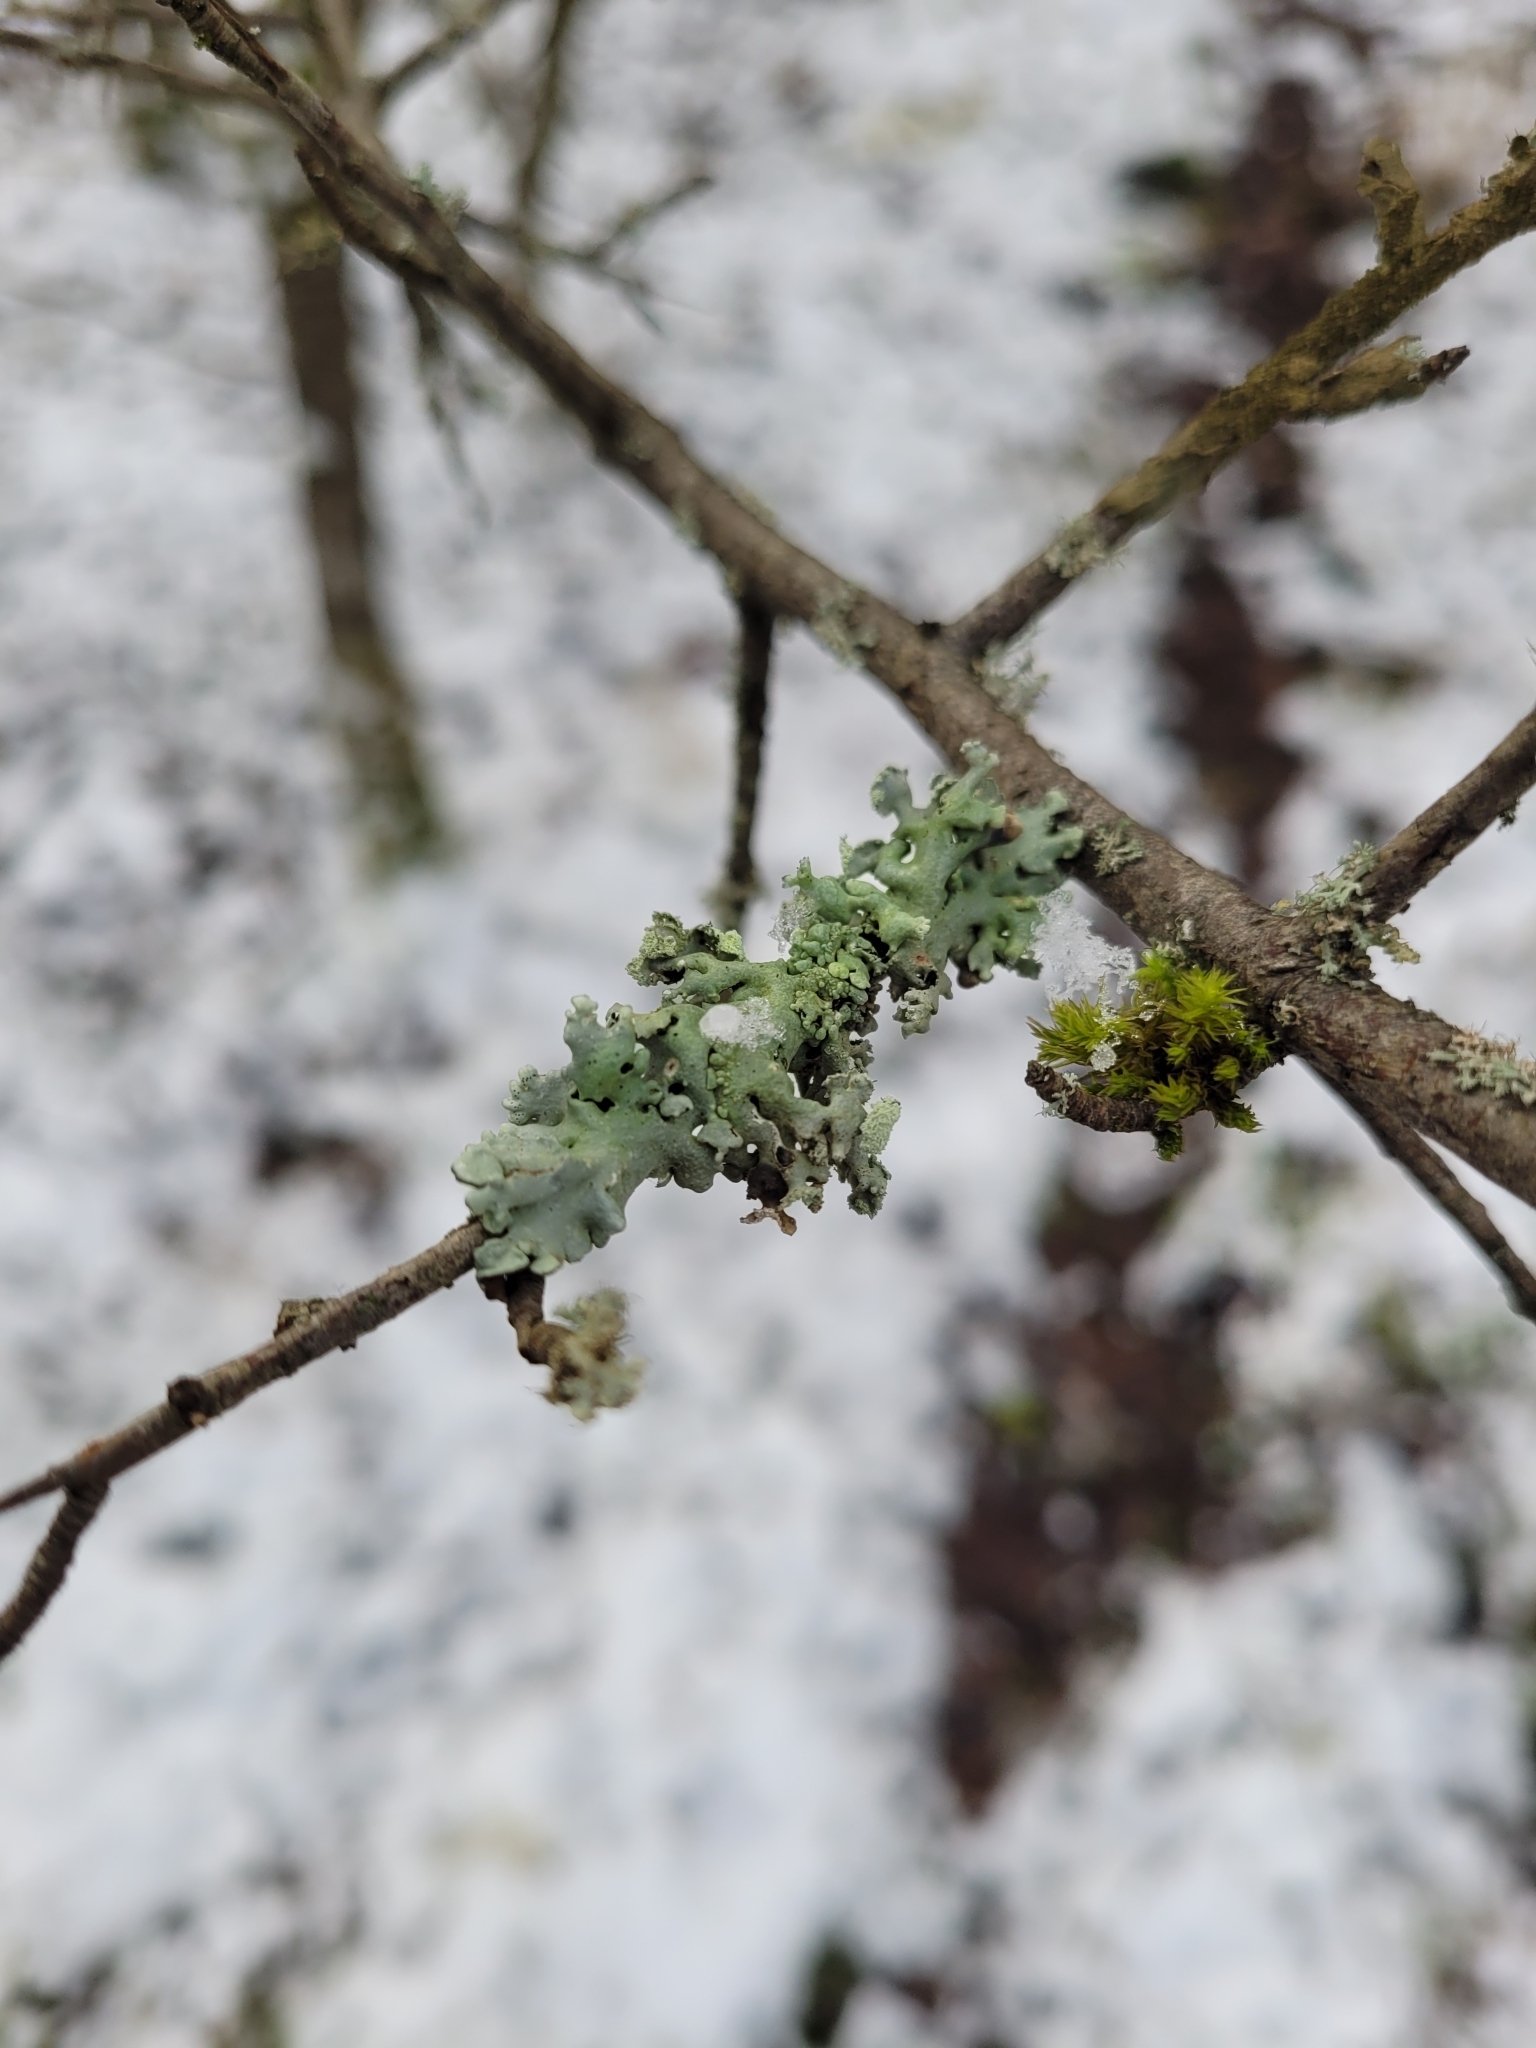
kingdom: Fungi
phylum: Ascomycota
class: Lecanoromycetes
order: Lecanorales
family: Parmeliaceae
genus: Hypogymnia
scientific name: Hypogymnia physodes
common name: Dark crottle
